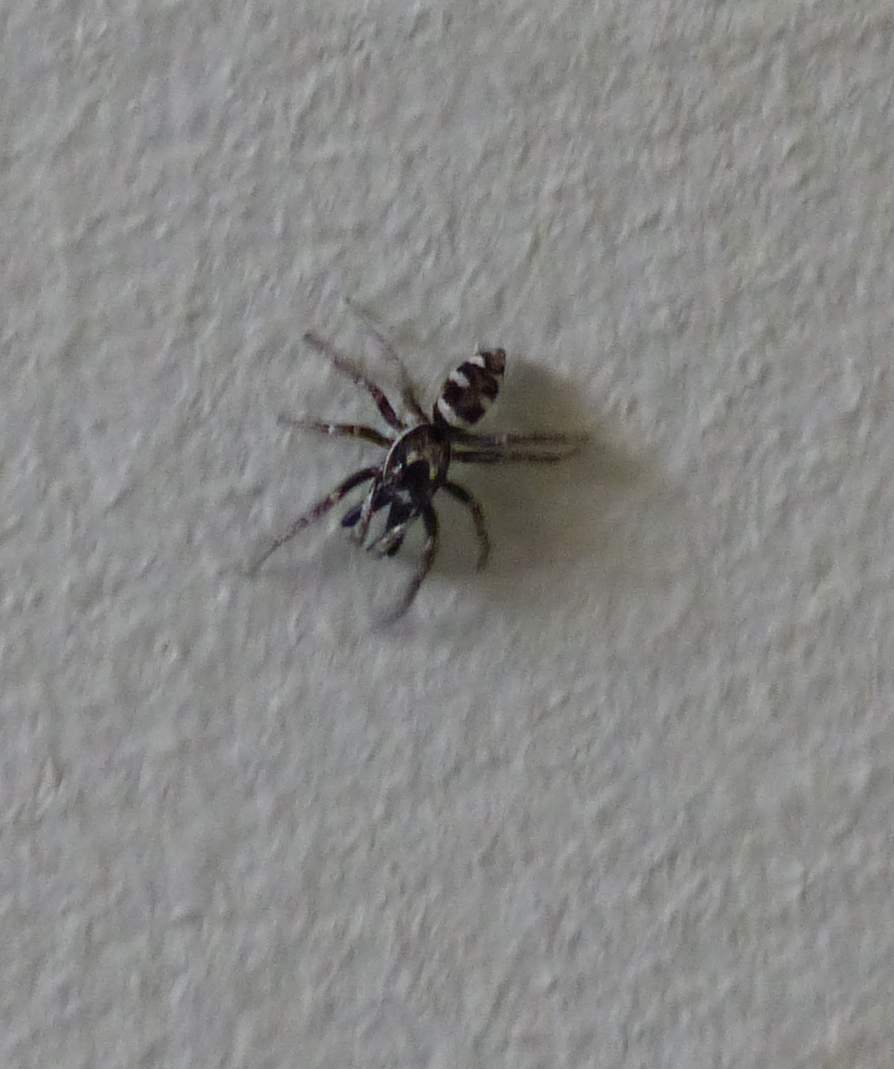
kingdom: Animalia
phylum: Arthropoda
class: Arachnida
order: Araneae
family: Salticidae
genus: Salticus
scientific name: Salticus scenicus
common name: Zebra jumper
